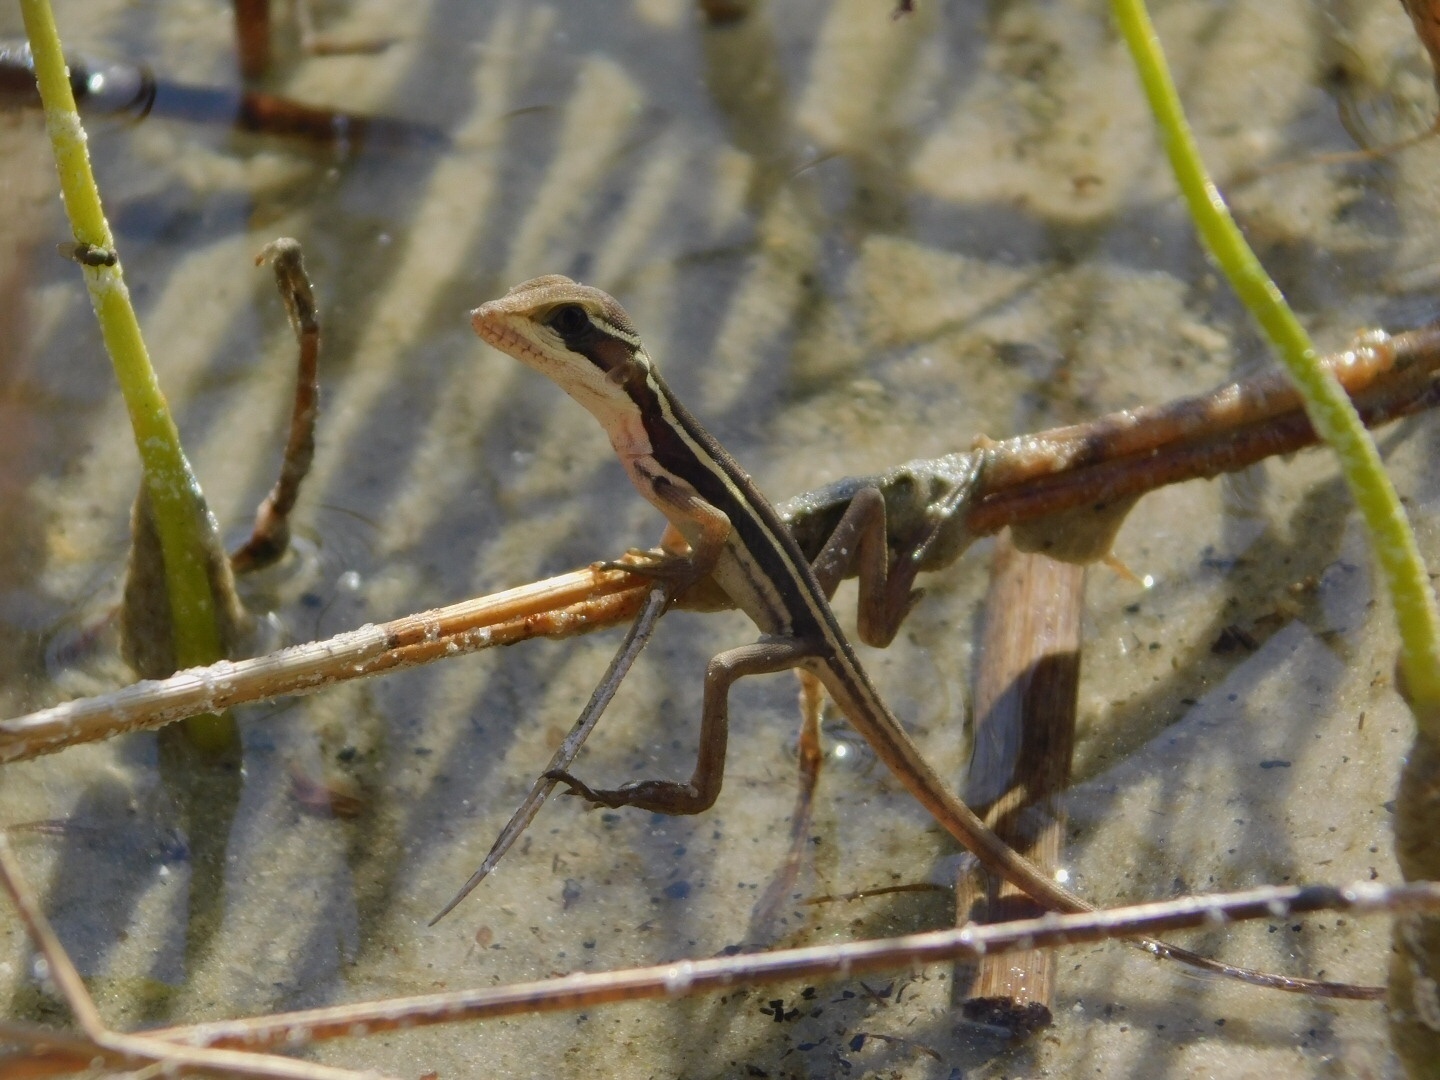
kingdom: Animalia
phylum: Chordata
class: Squamata
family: Corytophanidae
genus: Basiliscus
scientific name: Basiliscus vittatus
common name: Brown basilisk
